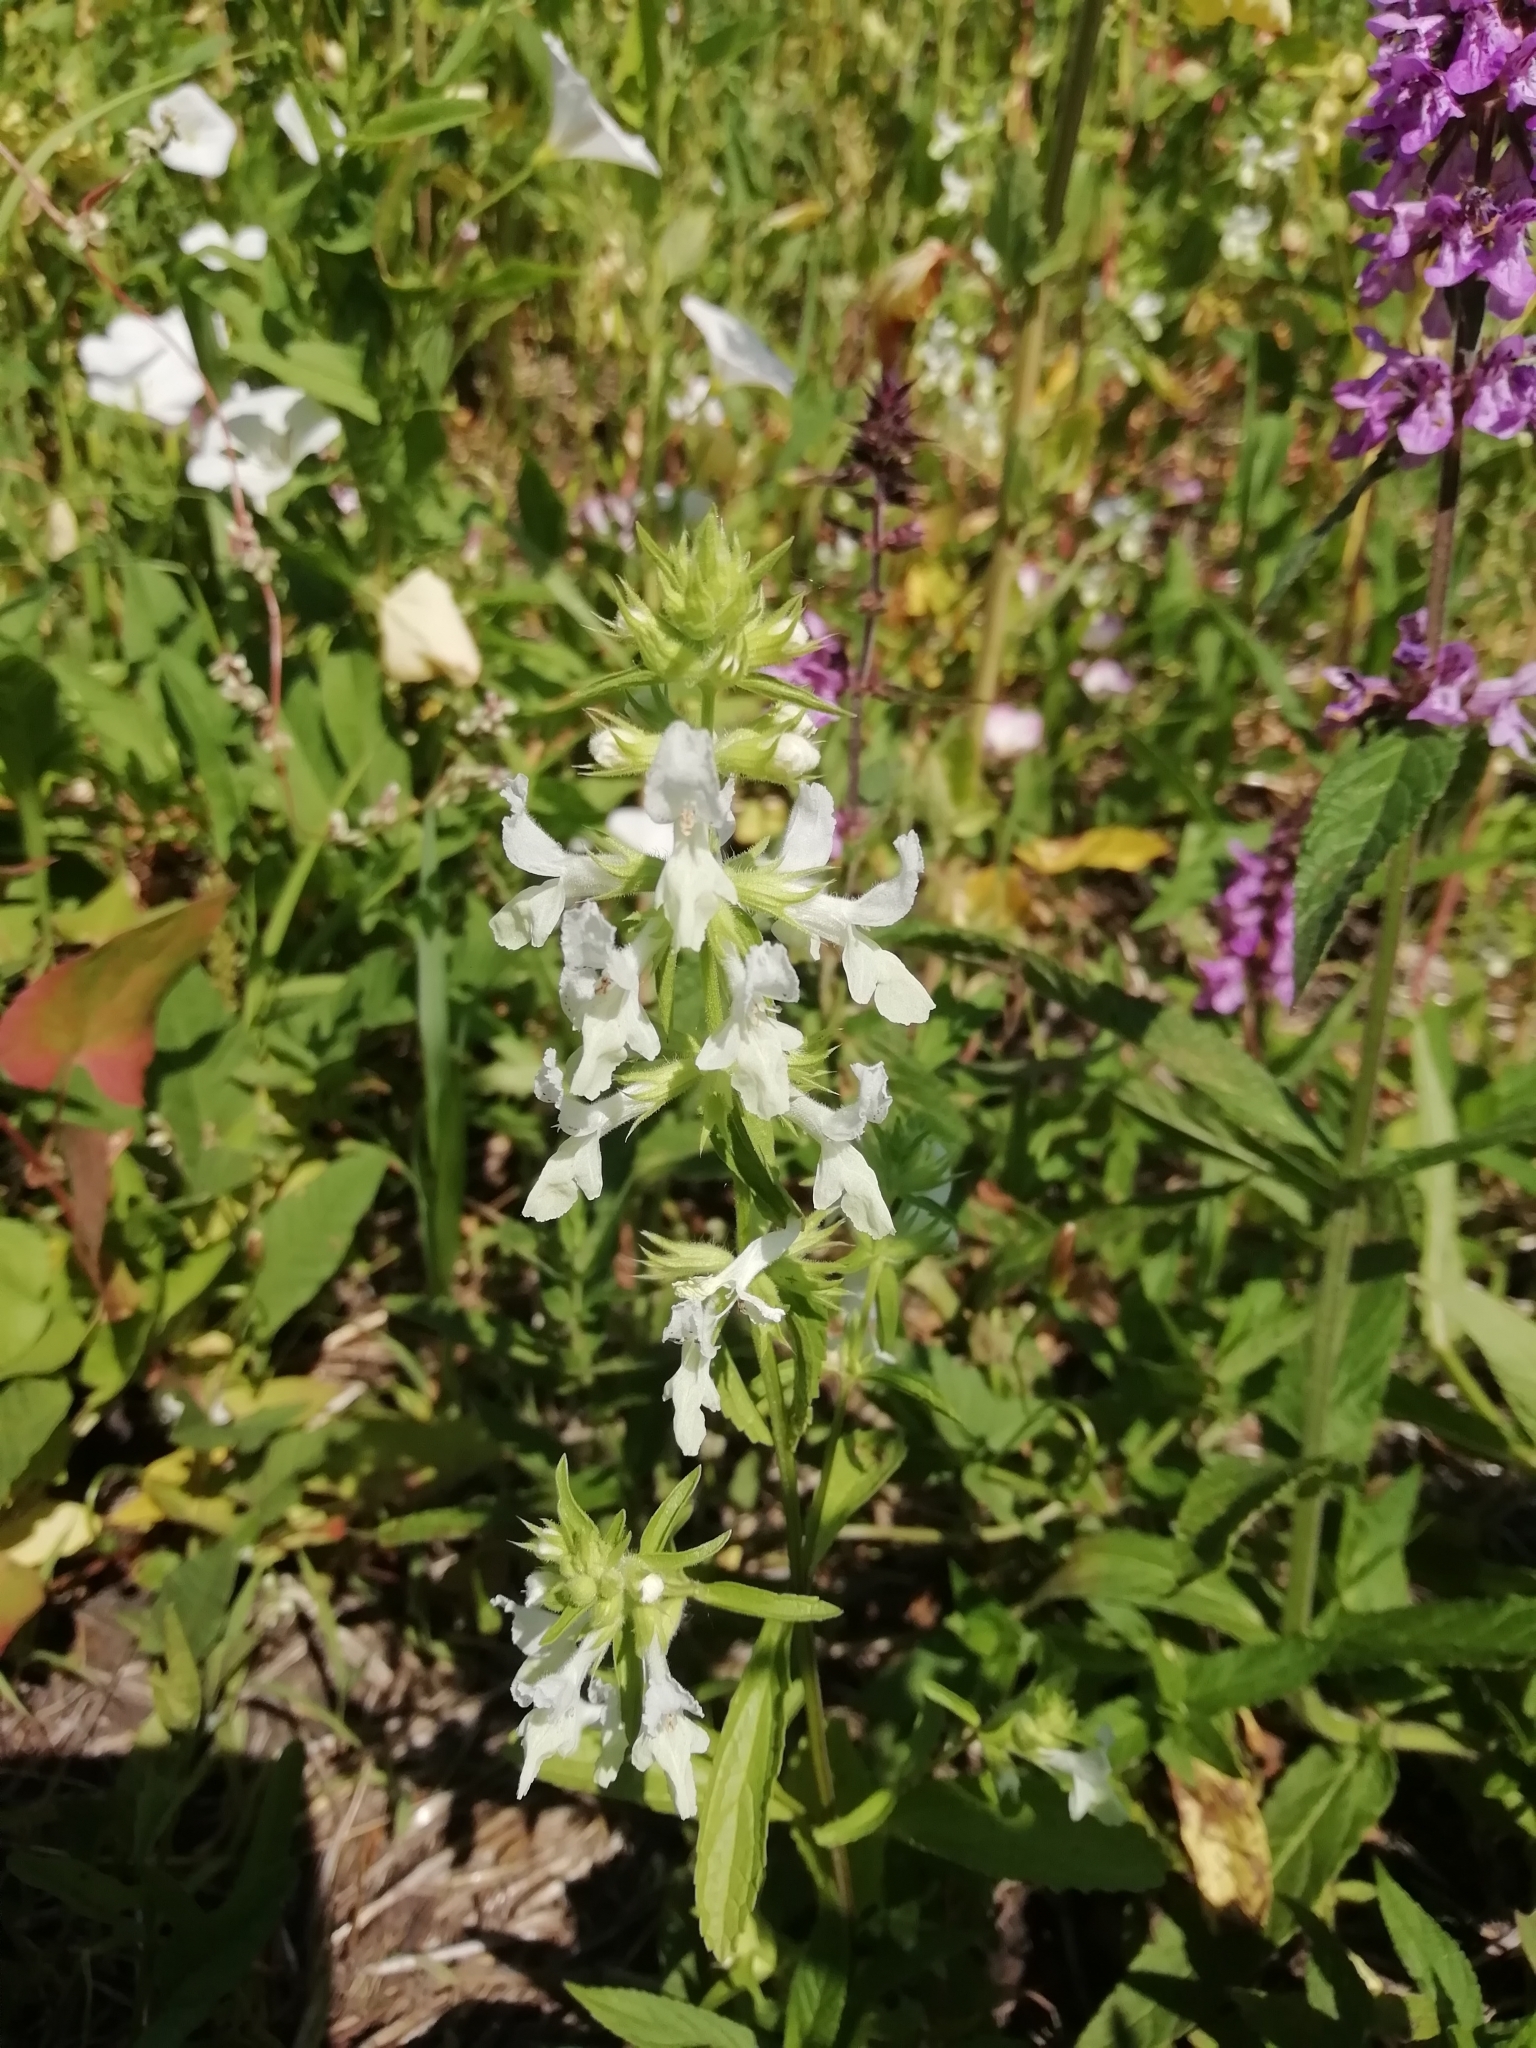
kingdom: Plantae
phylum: Tracheophyta
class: Magnoliopsida
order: Lamiales
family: Lamiaceae
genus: Stachys
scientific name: Stachys annua
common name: Annual yellow-woundwort
